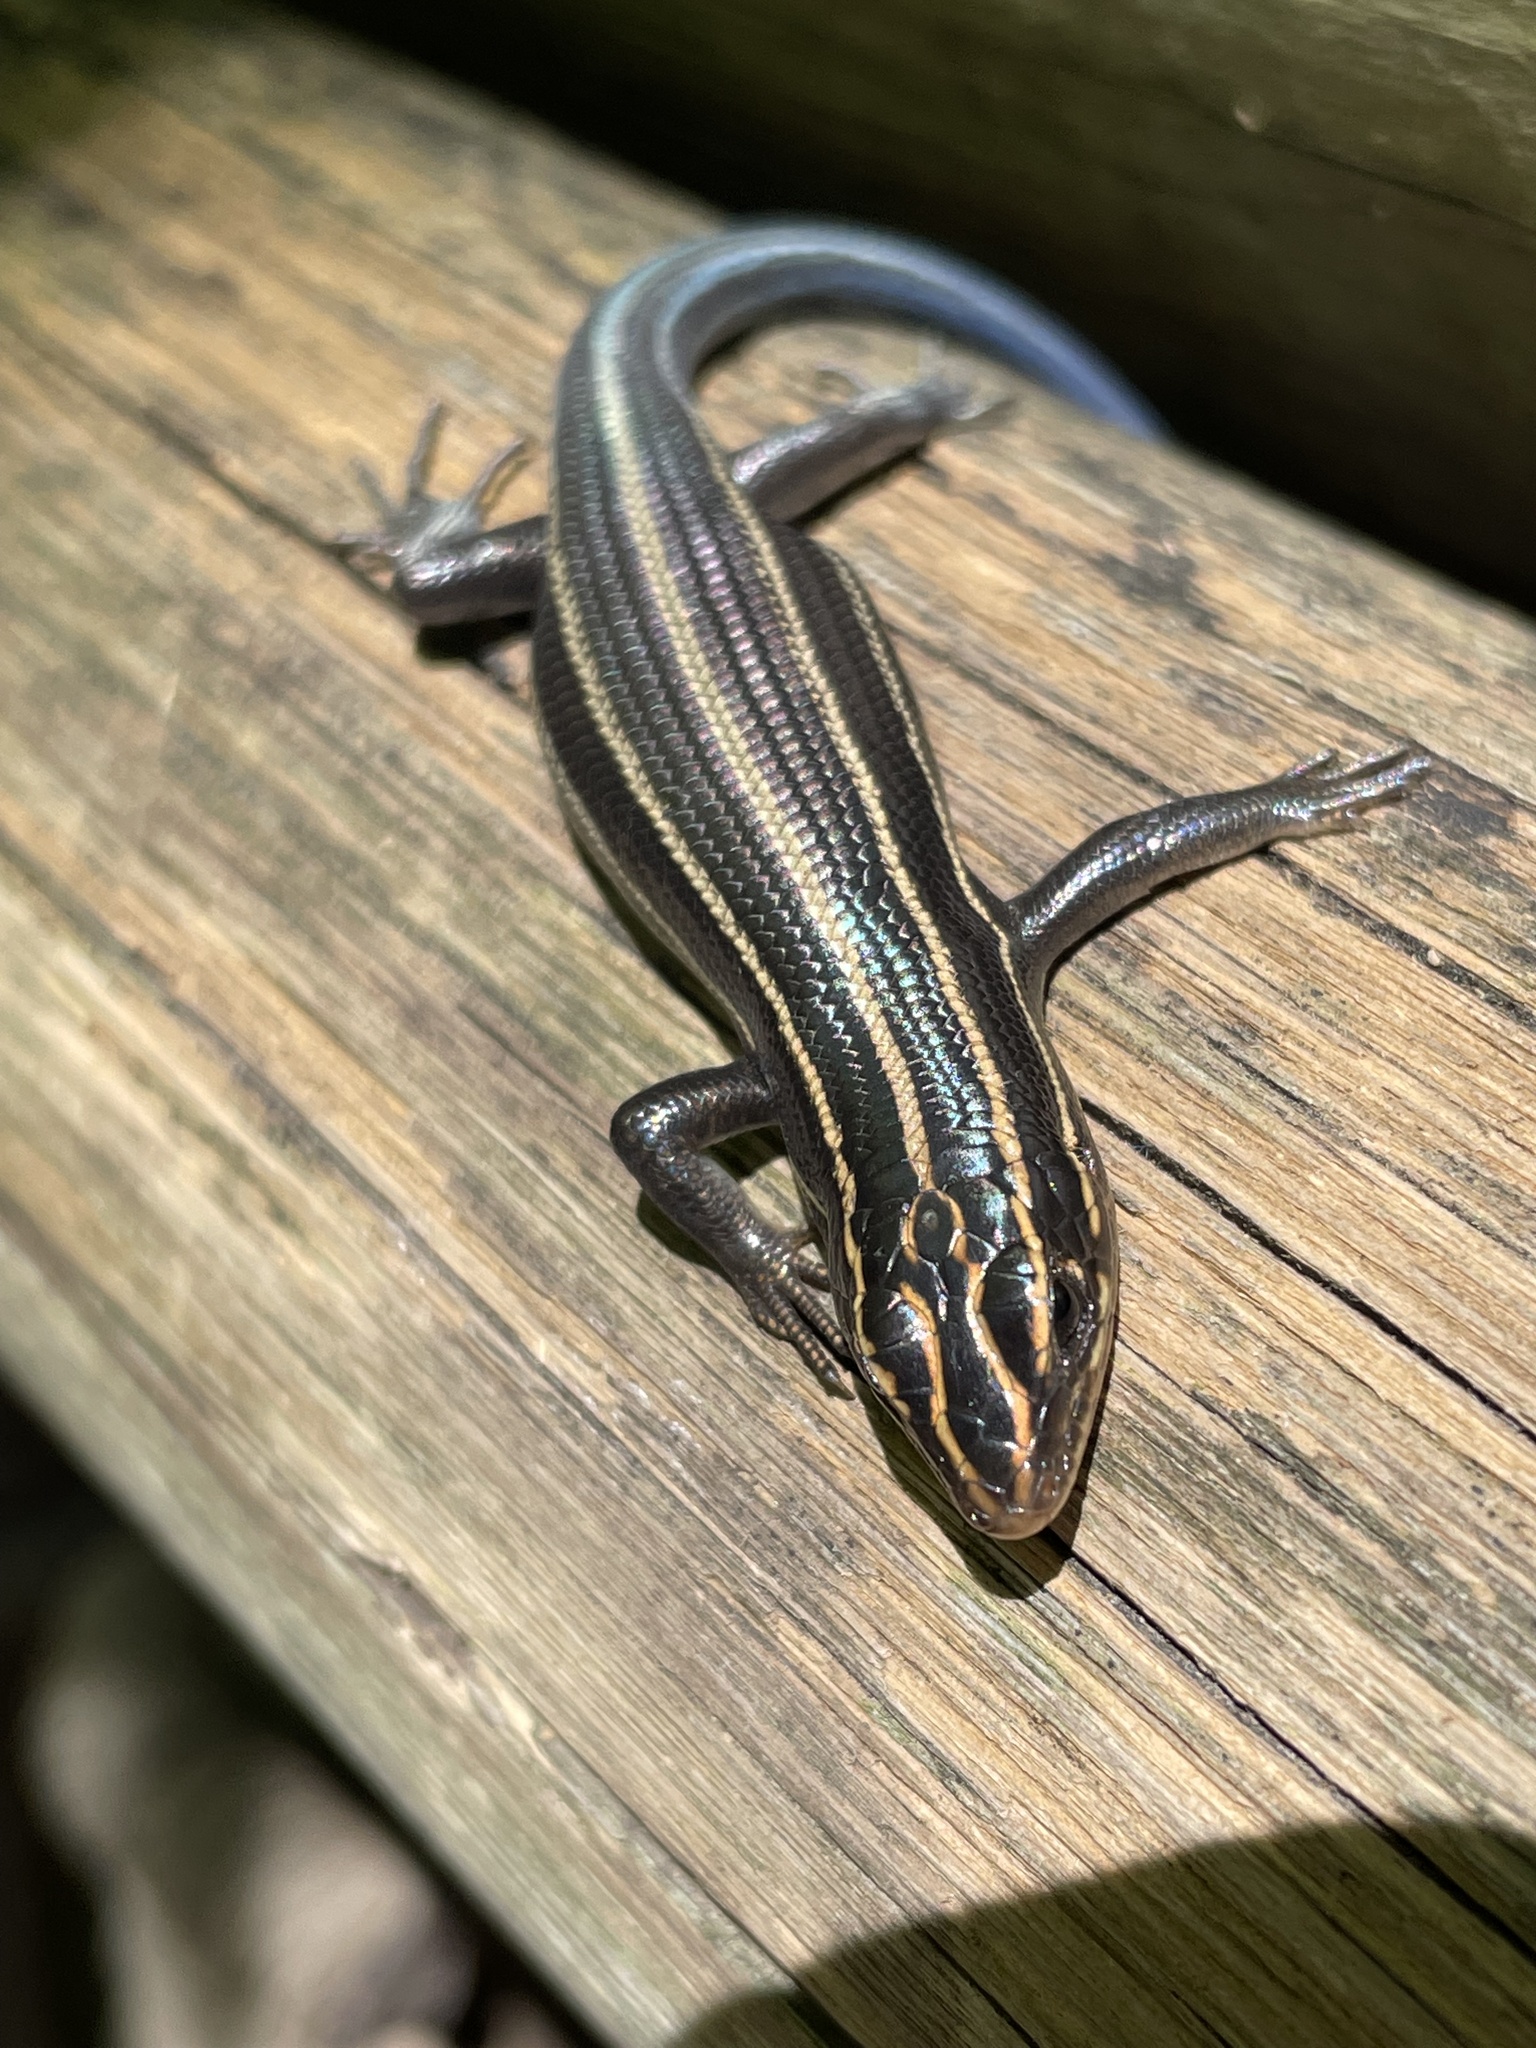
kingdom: Animalia
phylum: Chordata
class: Squamata
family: Scincidae
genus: Plestiodon
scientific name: Plestiodon laticeps
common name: Broadhead skink
